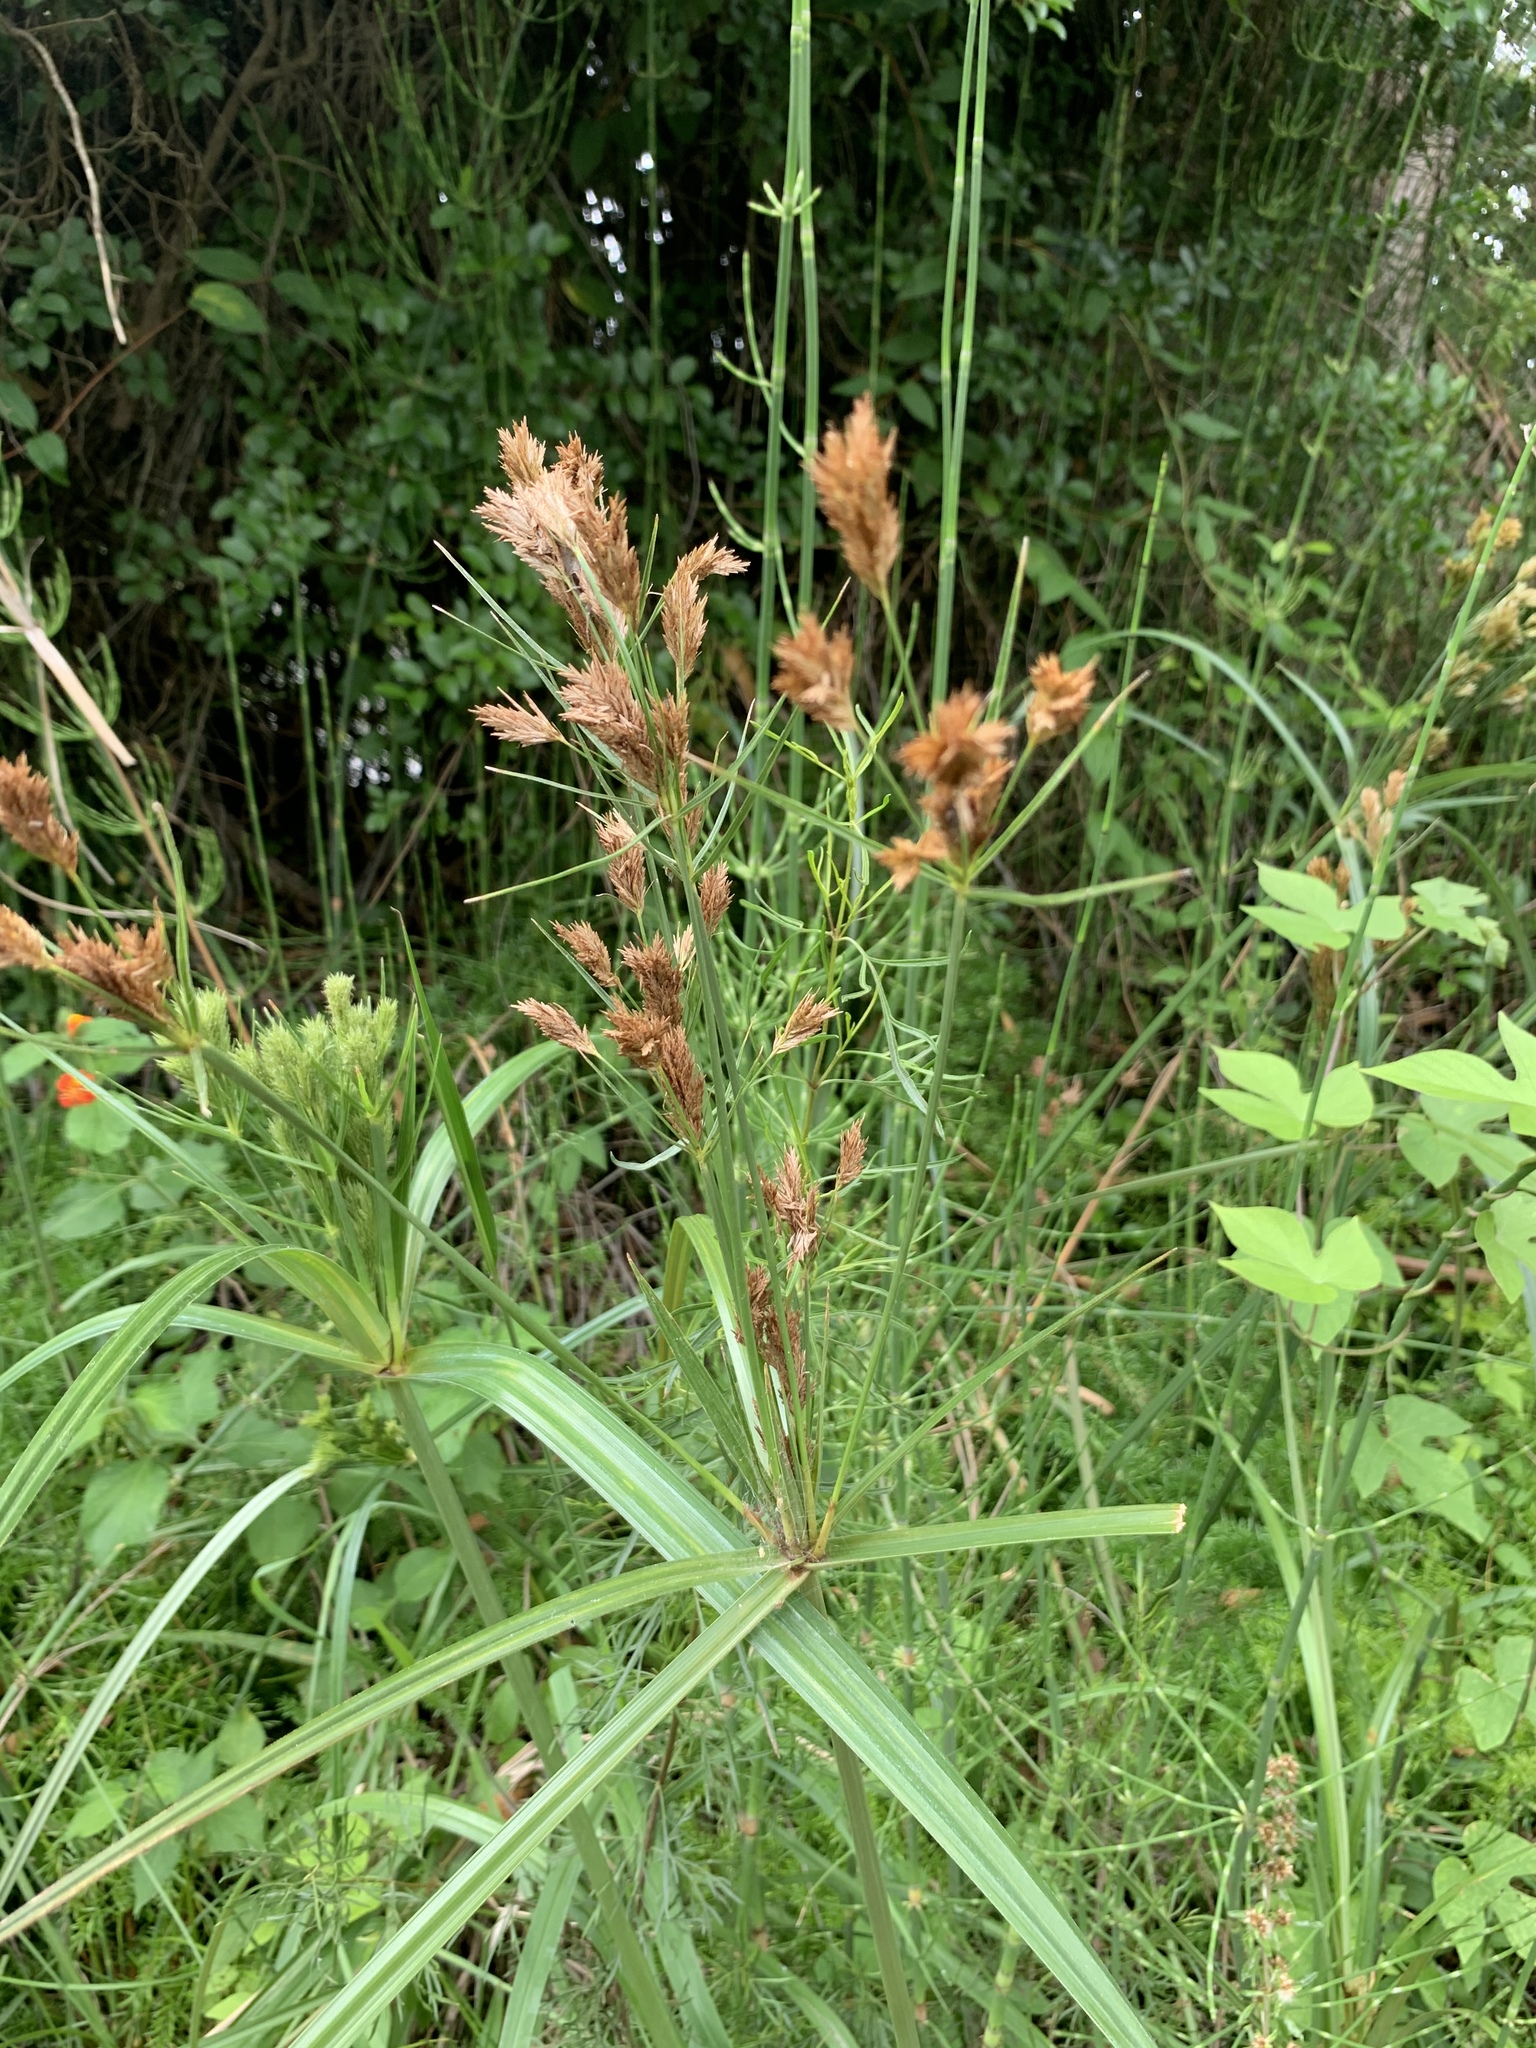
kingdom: Plantae
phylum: Tracheophyta
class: Liliopsida
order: Poales
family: Cyperaceae
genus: Cyperus
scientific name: Cyperus prolixus
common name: Mosquito flatsedge
